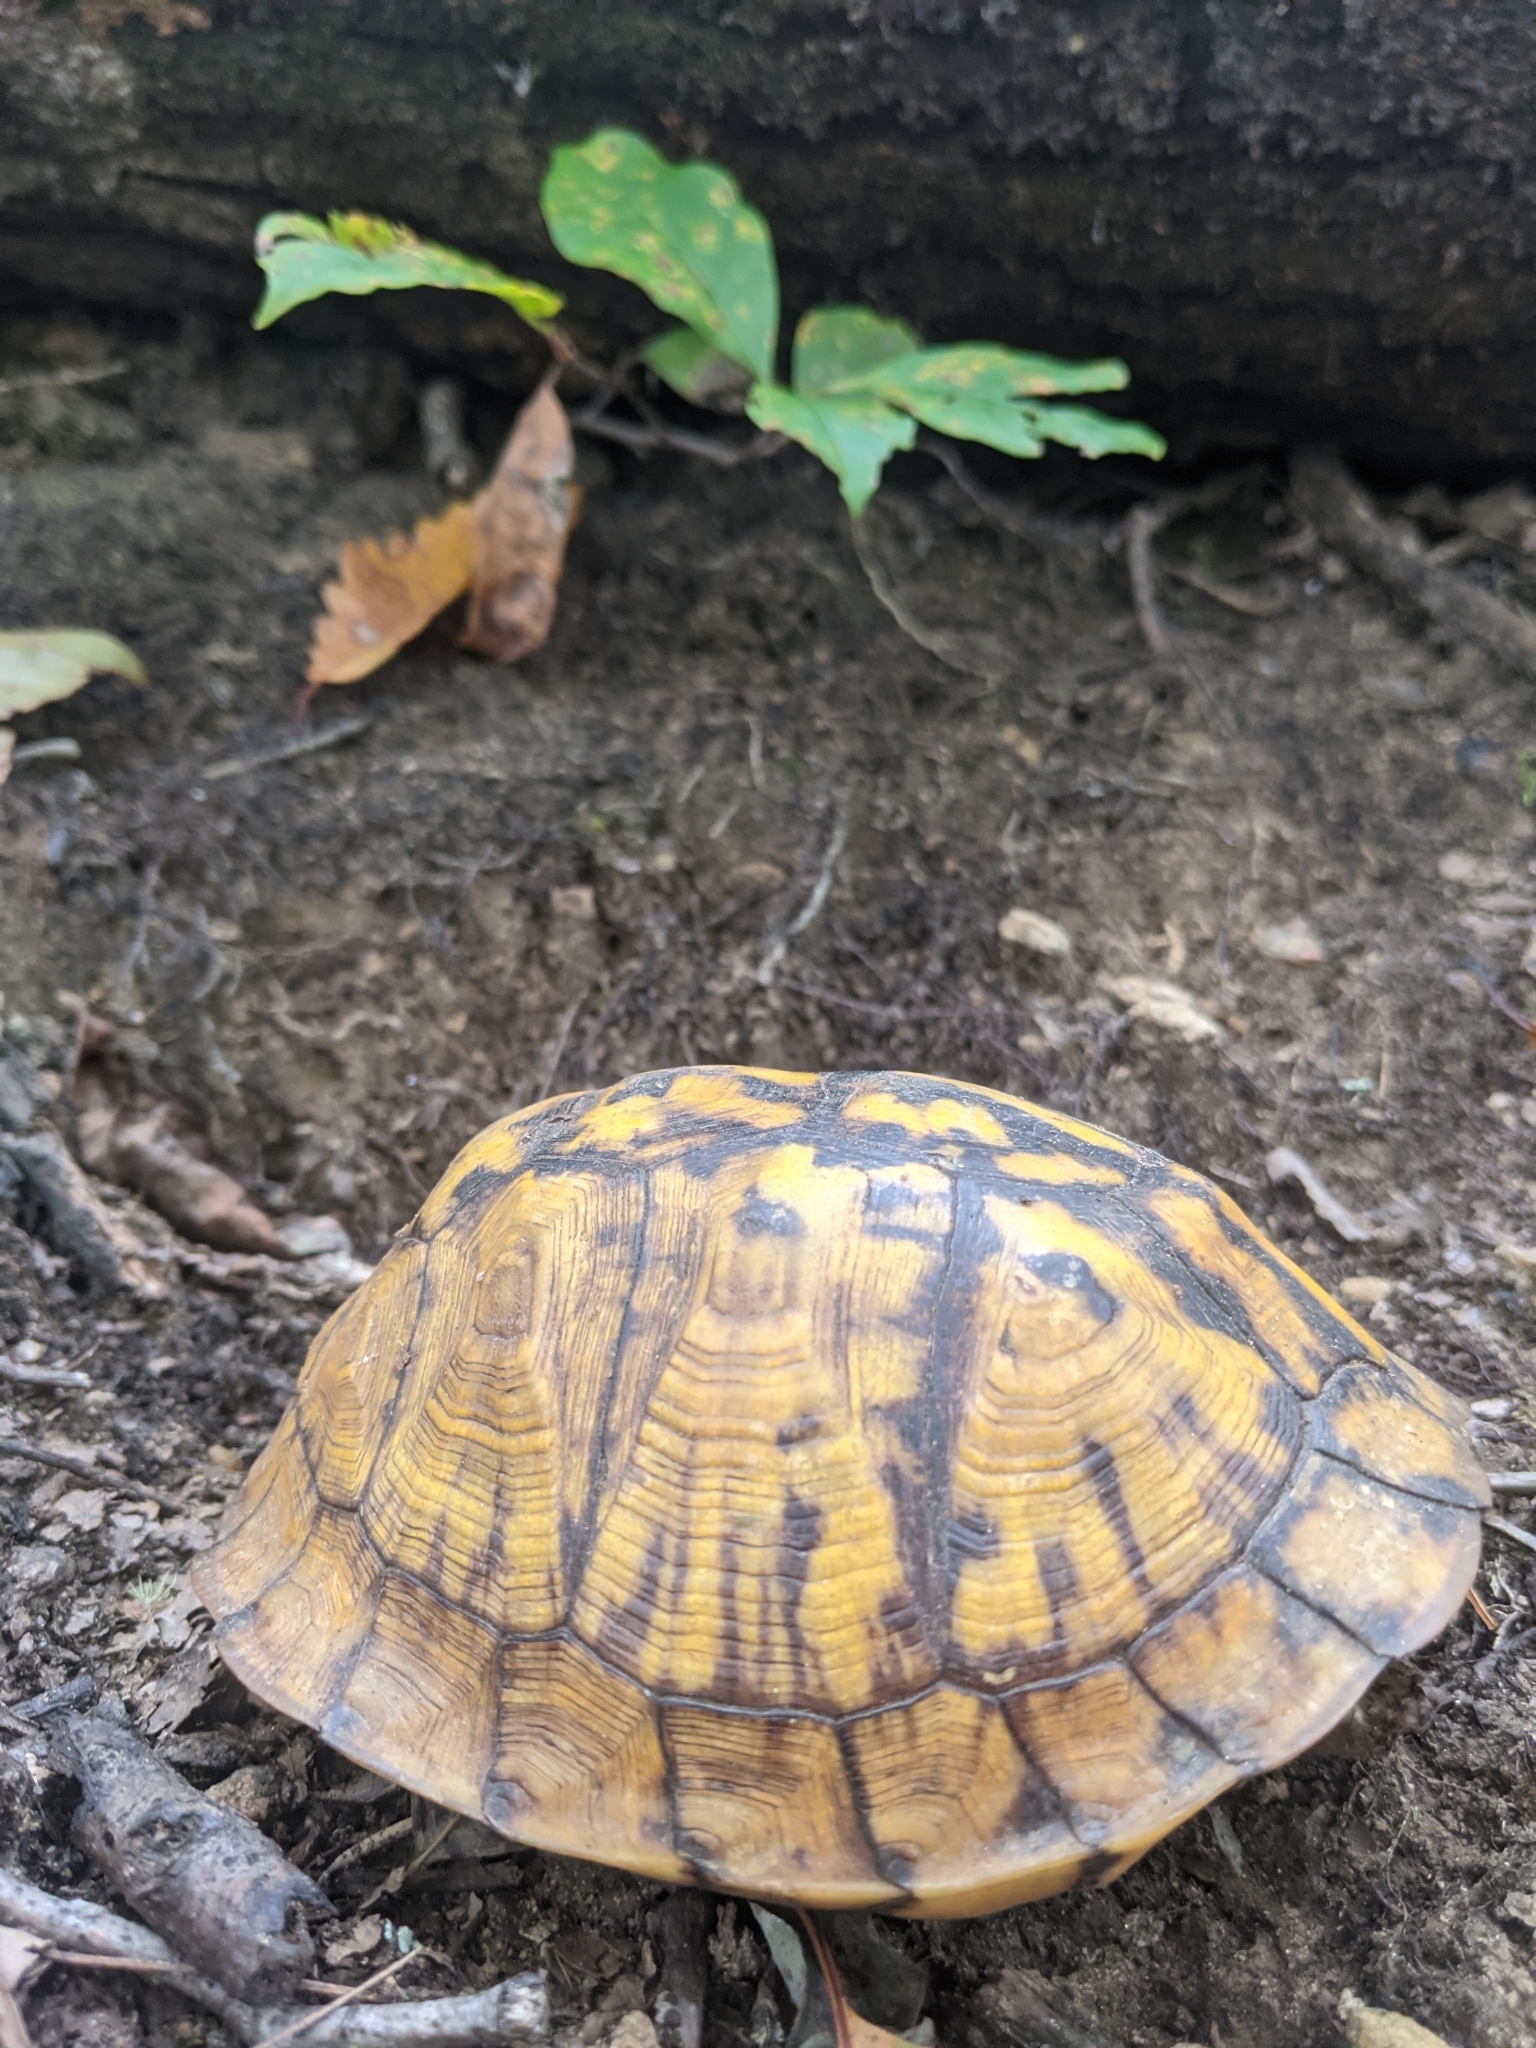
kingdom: Animalia
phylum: Chordata
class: Testudines
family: Emydidae
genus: Terrapene
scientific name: Terrapene carolina
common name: Common box turtle
